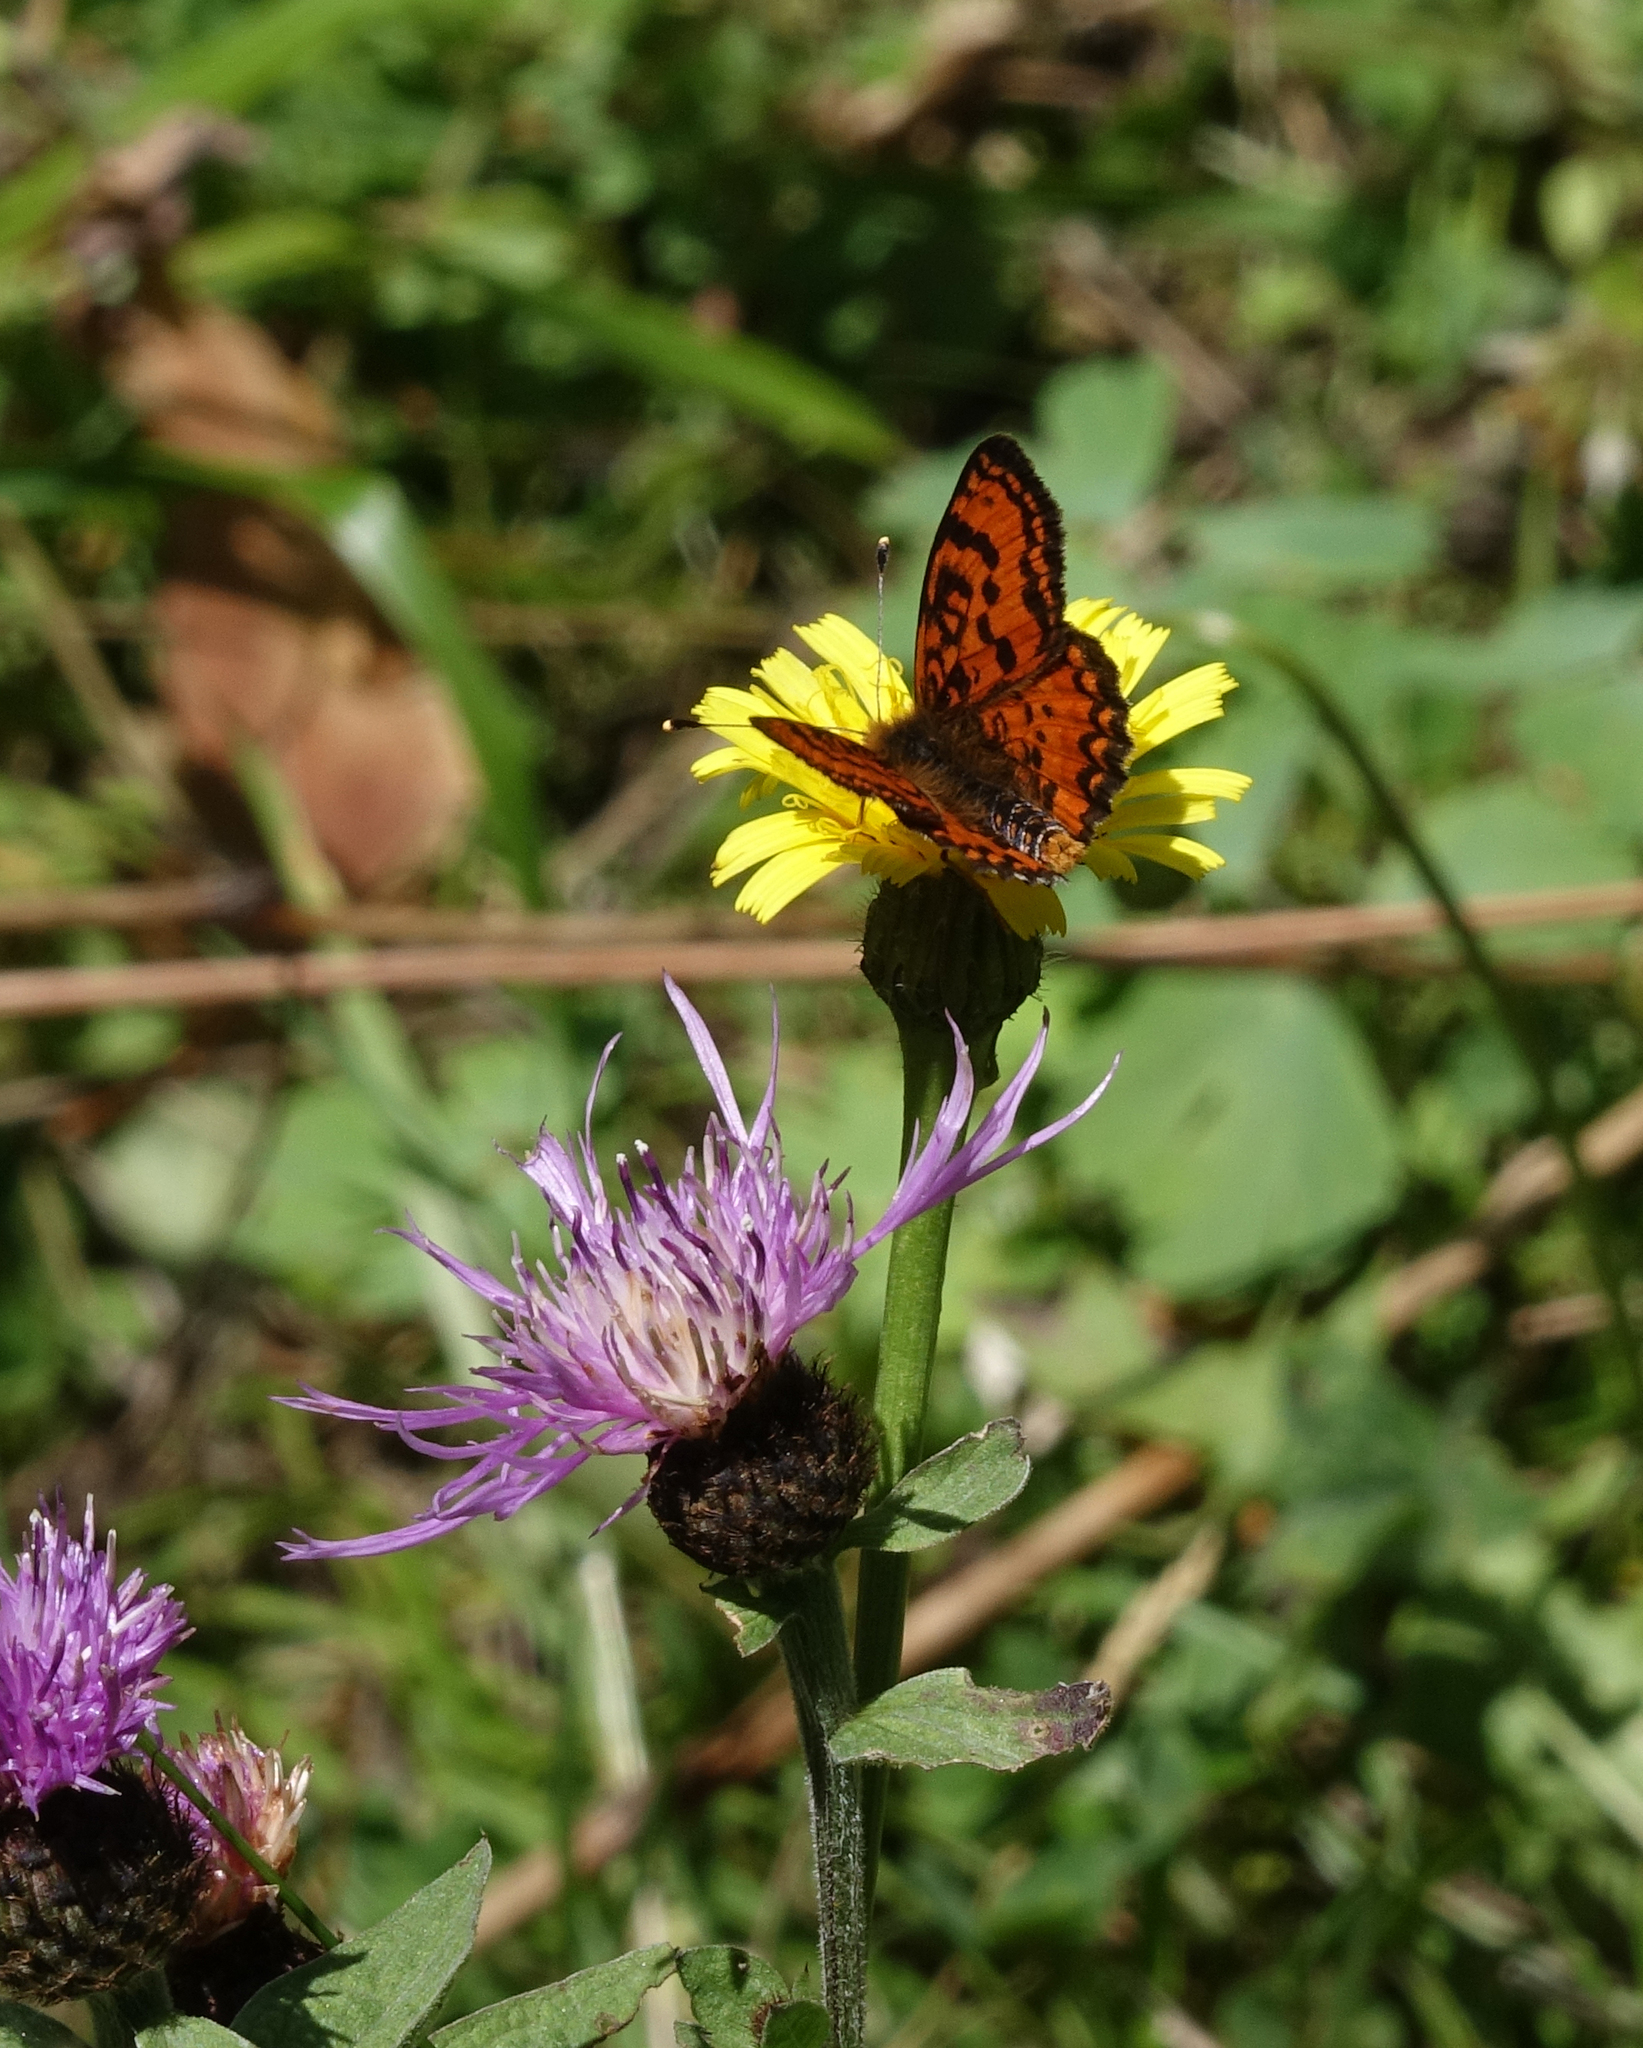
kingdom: Animalia
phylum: Arthropoda
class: Insecta
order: Lepidoptera
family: Nymphalidae
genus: Melitaea
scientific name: Melitaea cinxia
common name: Glanville fritillary
